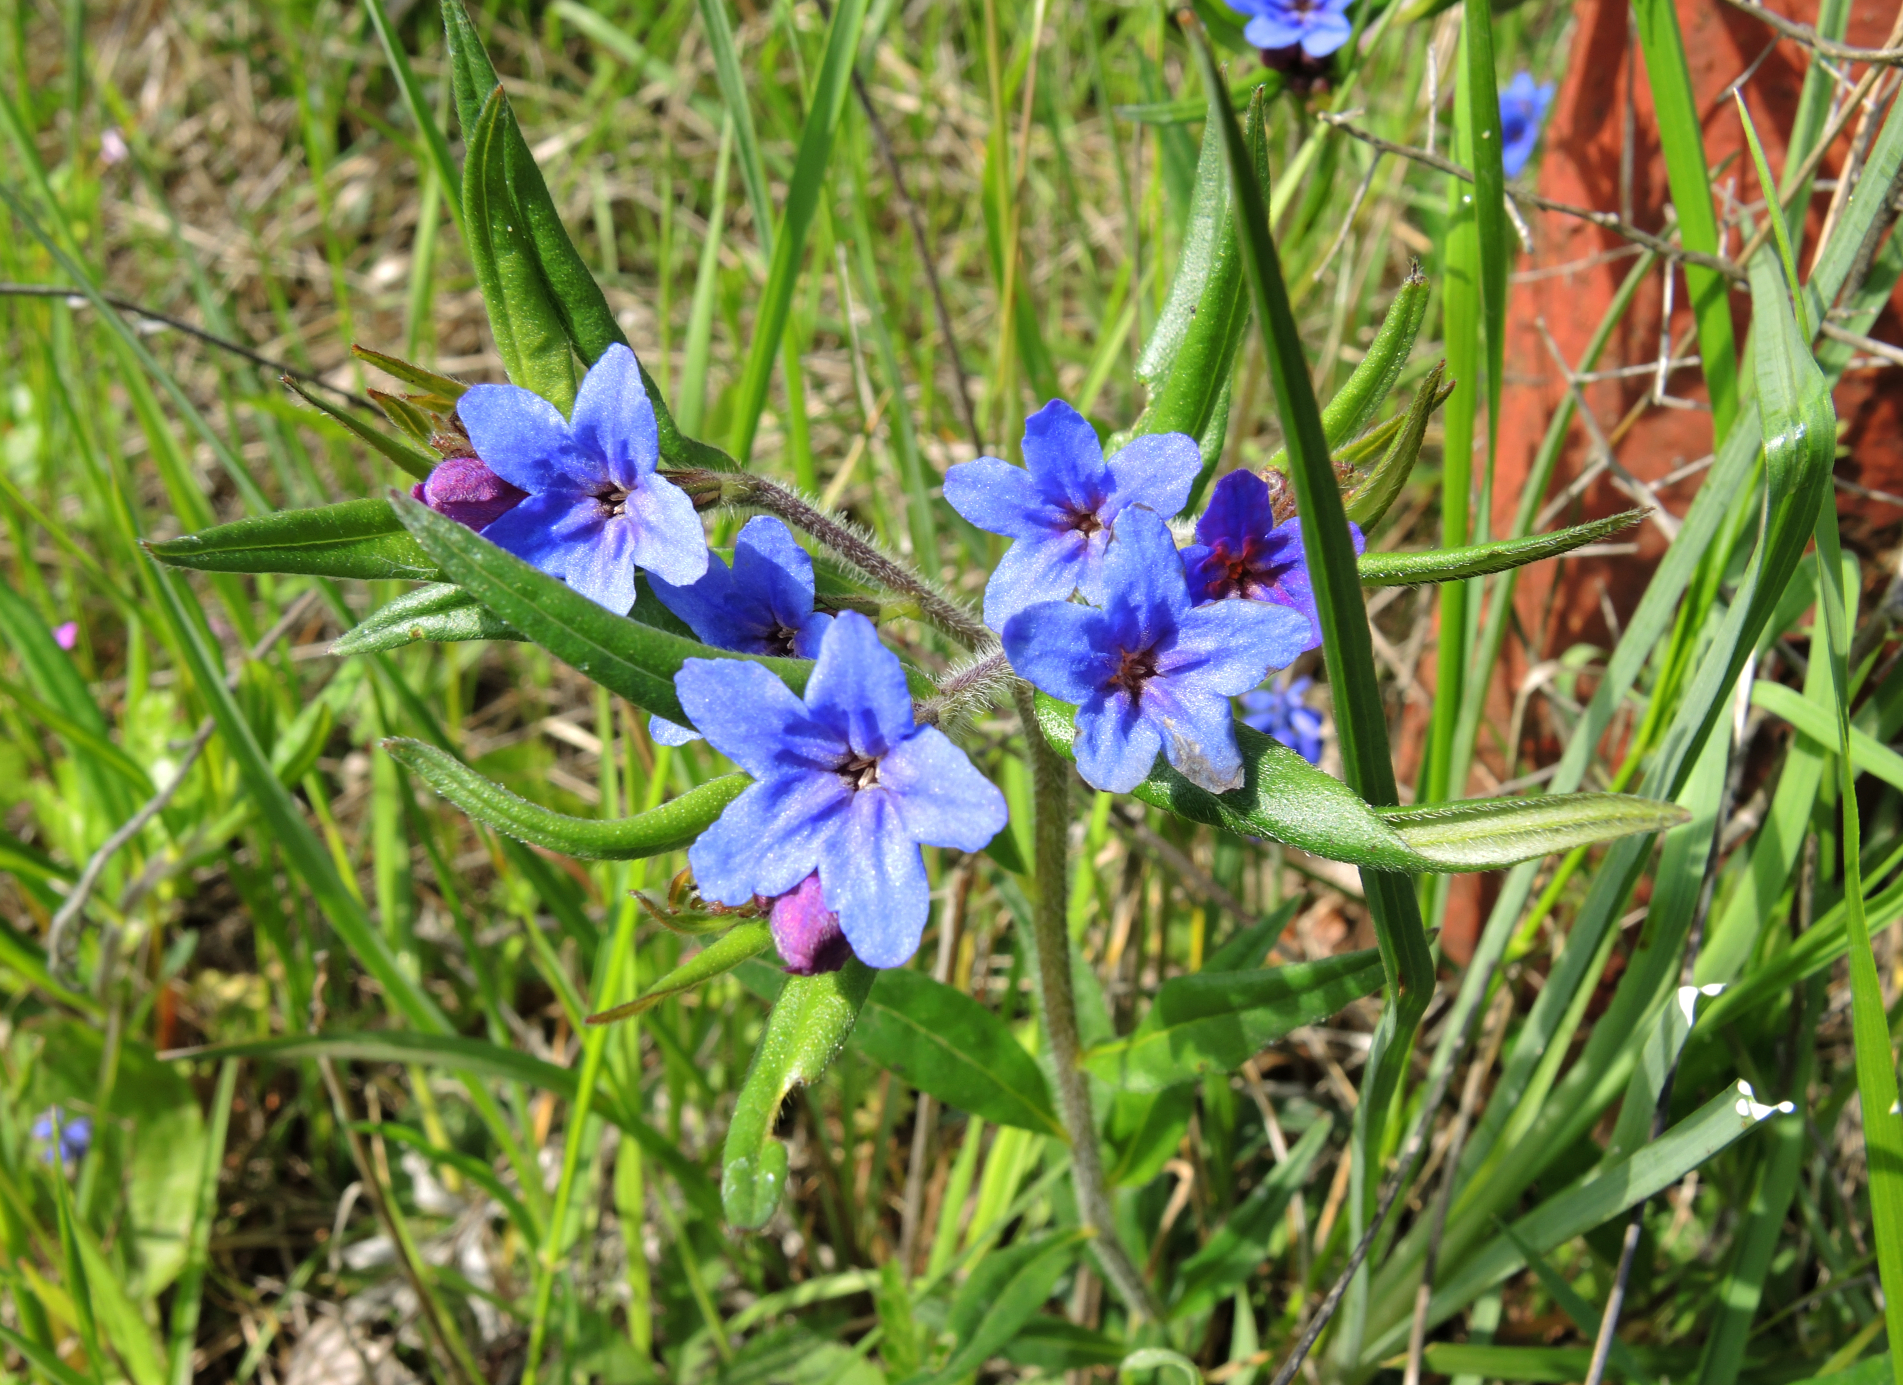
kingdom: Plantae
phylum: Tracheophyta
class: Magnoliopsida
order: Boraginales
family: Boraginaceae
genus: Aegonychon
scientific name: Aegonychon purpurocaeruleum
